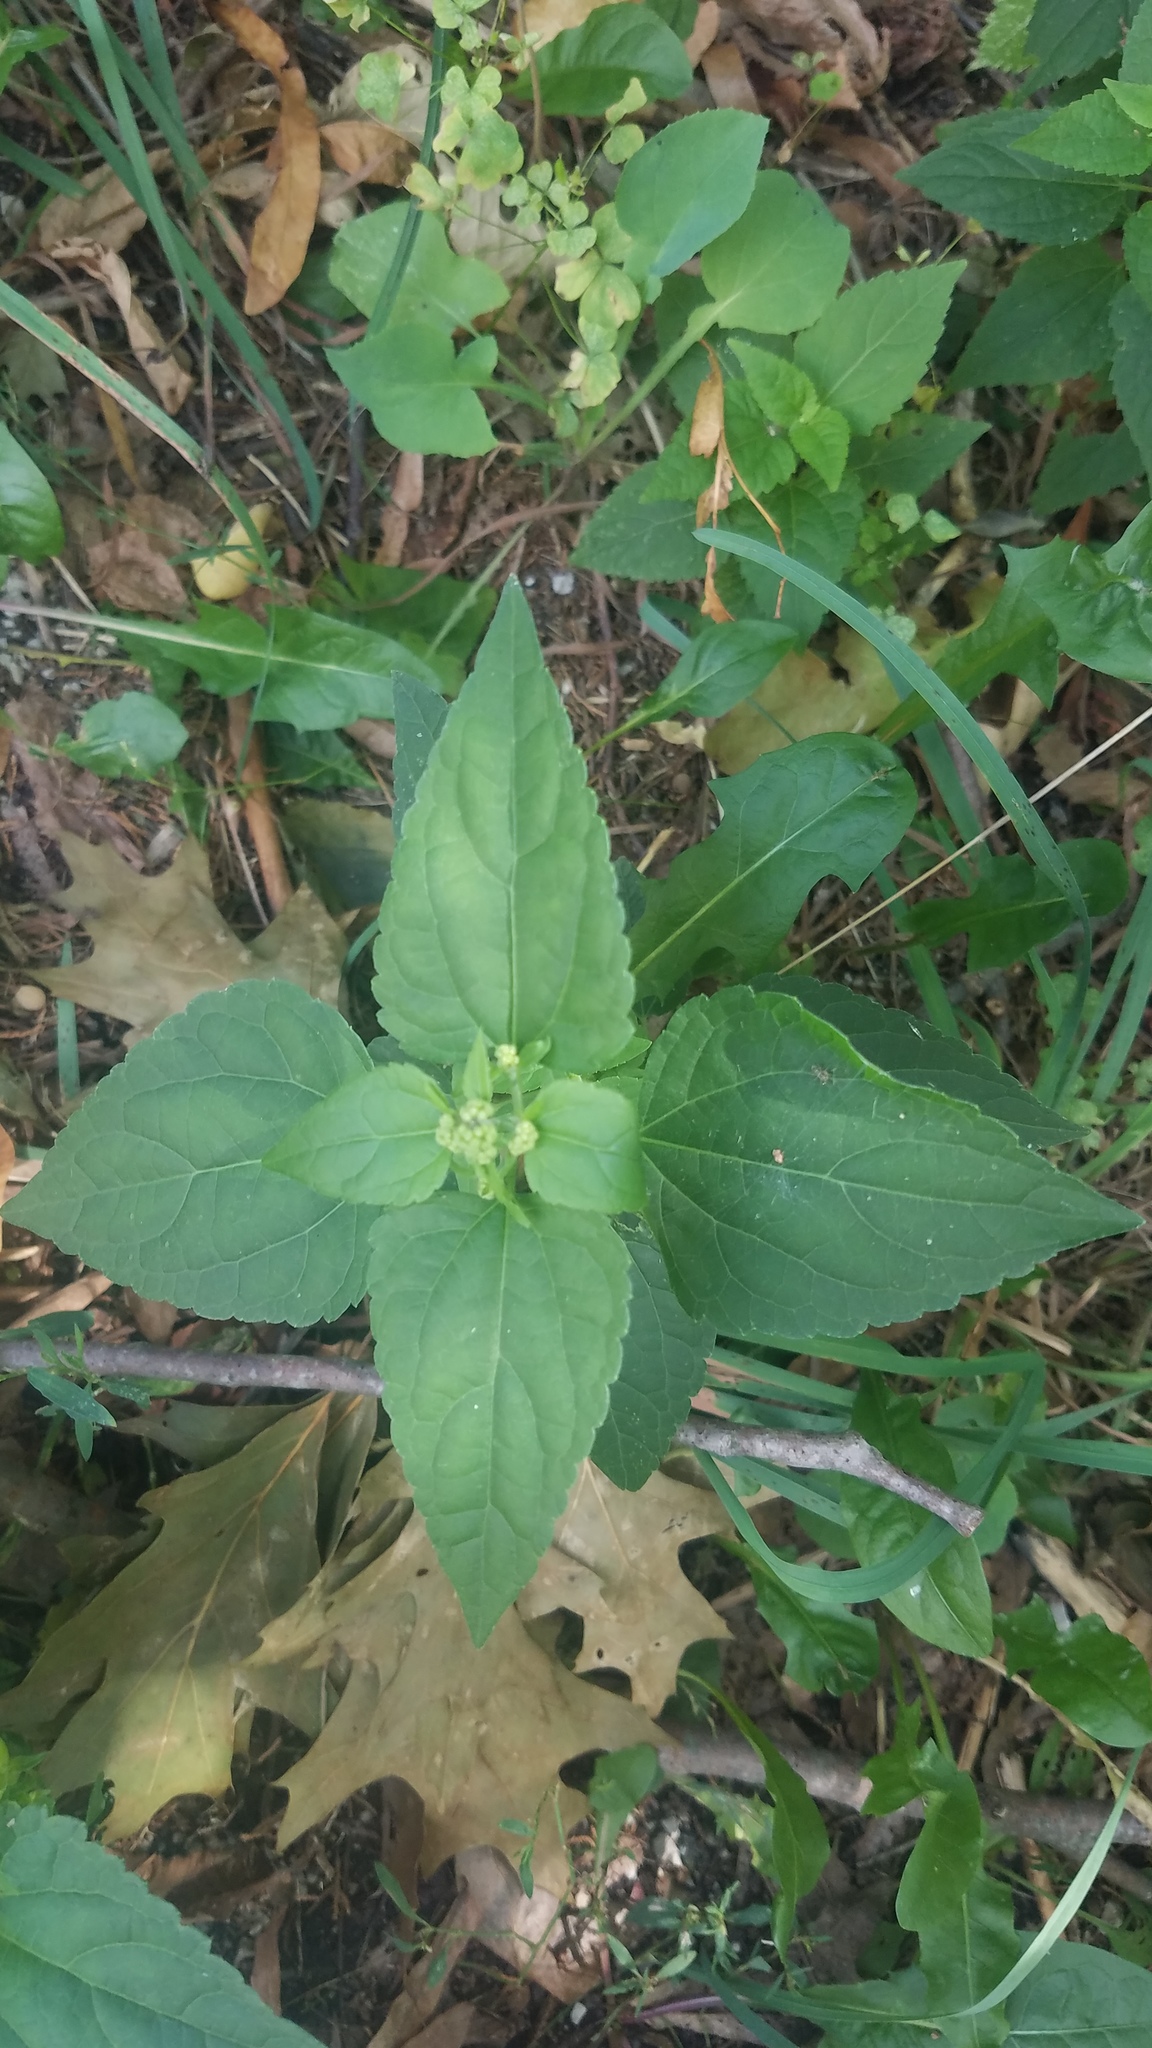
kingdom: Plantae
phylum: Tracheophyta
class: Magnoliopsida
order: Asterales
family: Asteraceae
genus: Ageratina
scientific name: Ageratina altissima
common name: White snakeroot
